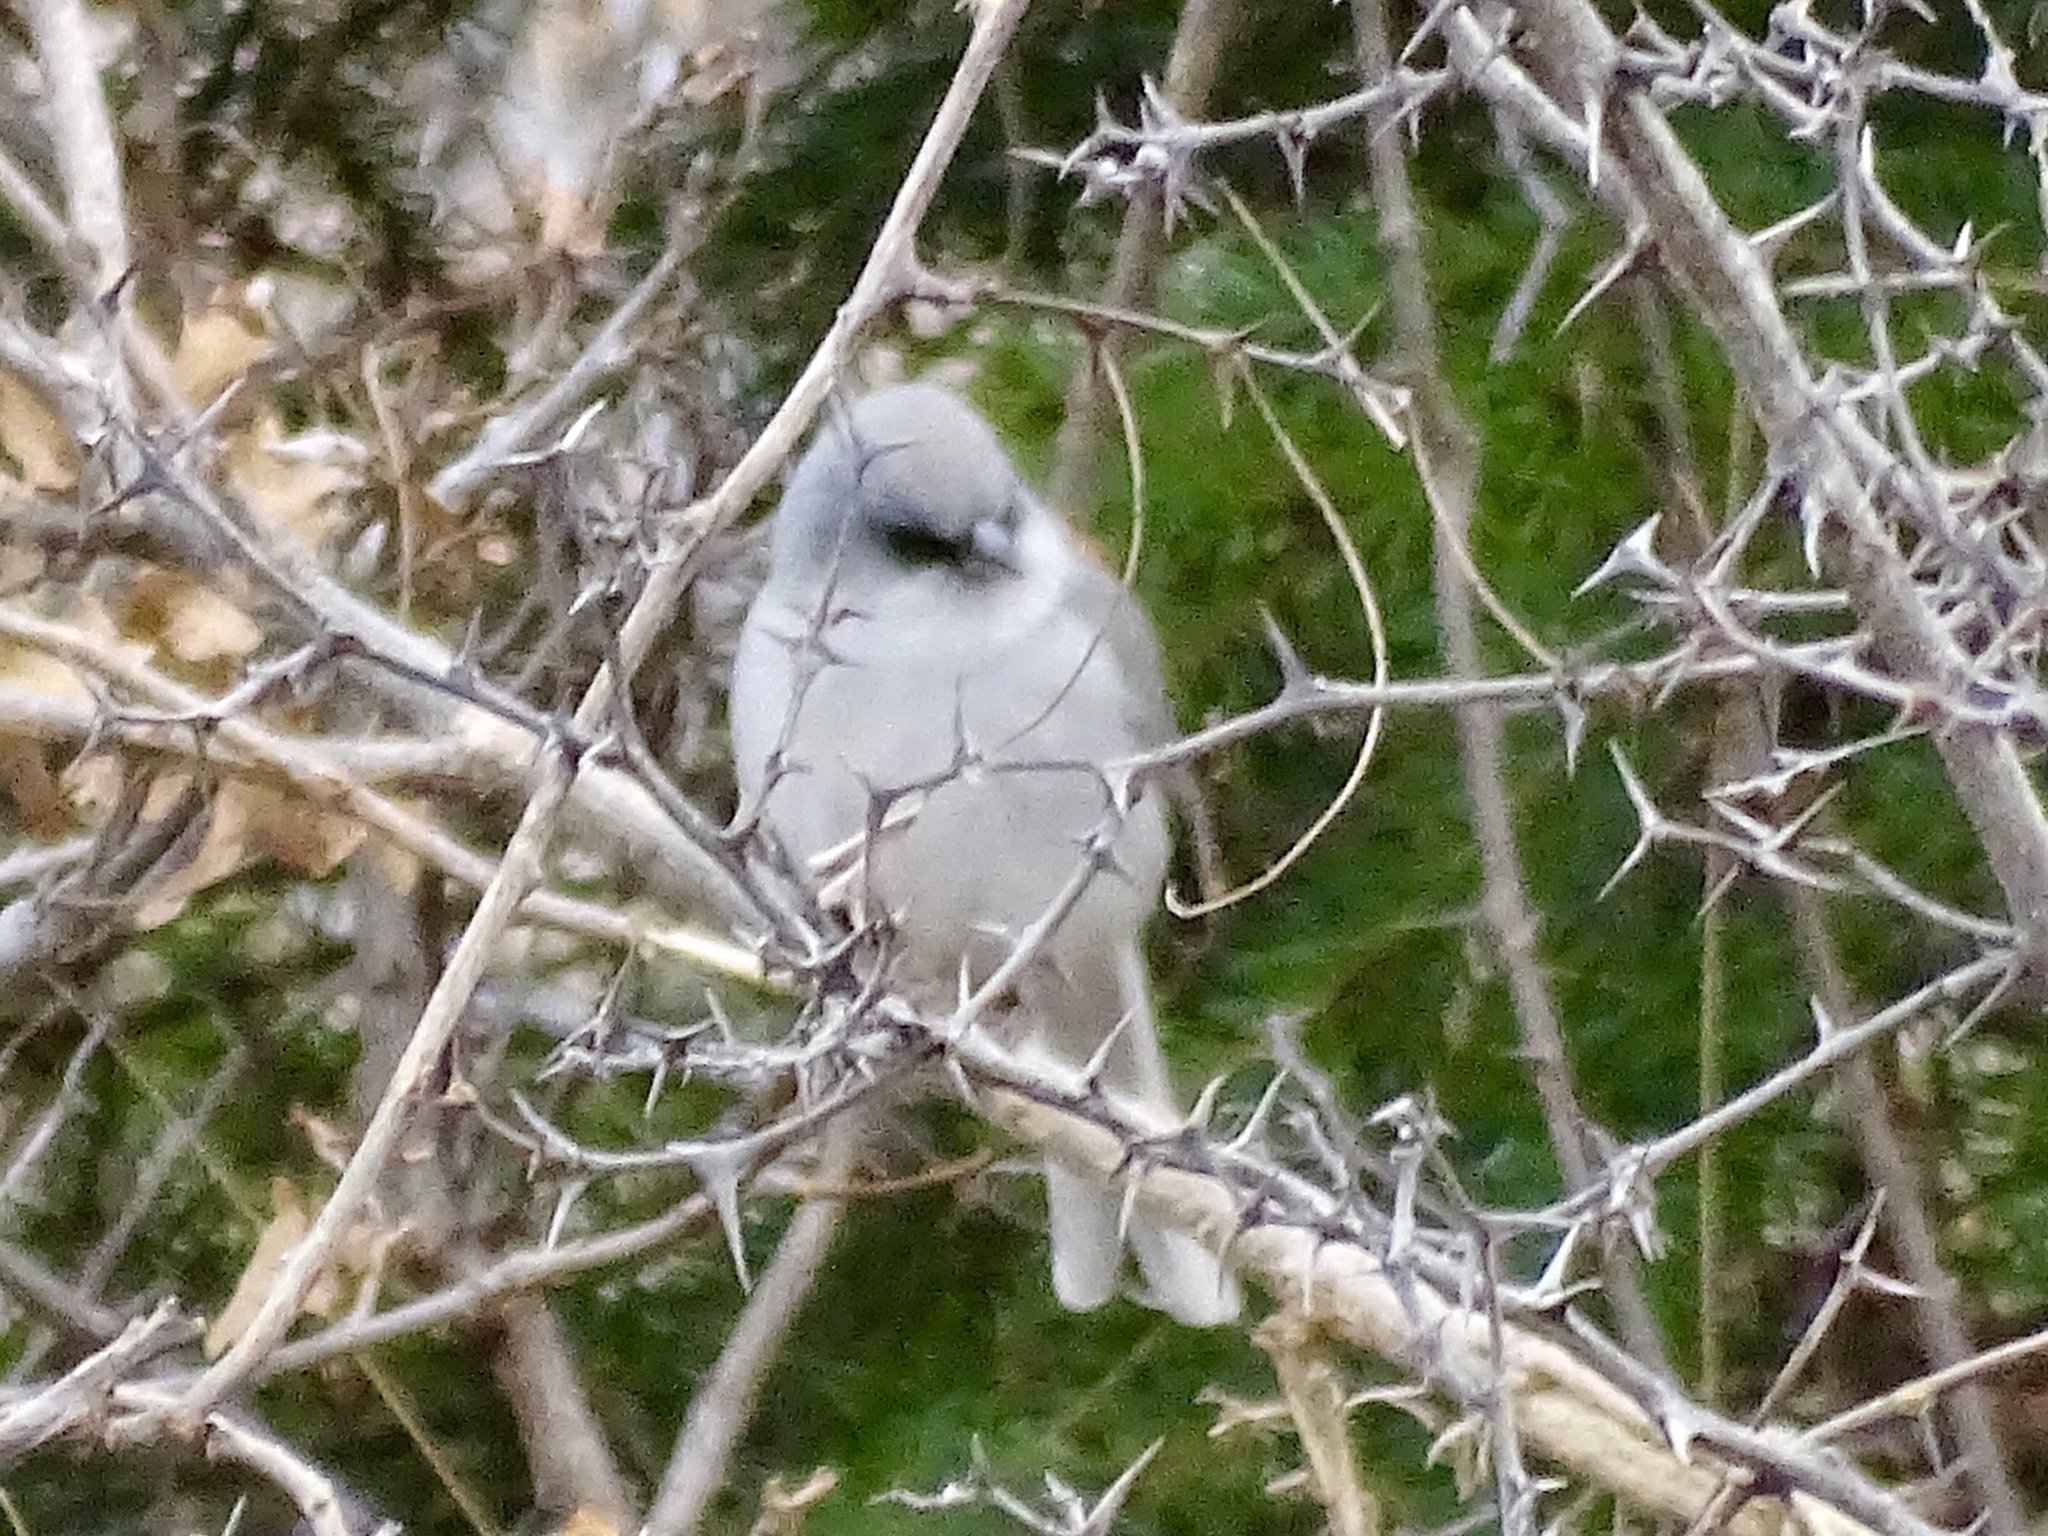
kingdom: Animalia
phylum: Chordata
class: Aves
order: Passeriformes
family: Passerellidae
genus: Junco
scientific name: Junco hyemalis
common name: Dark-eyed junco
